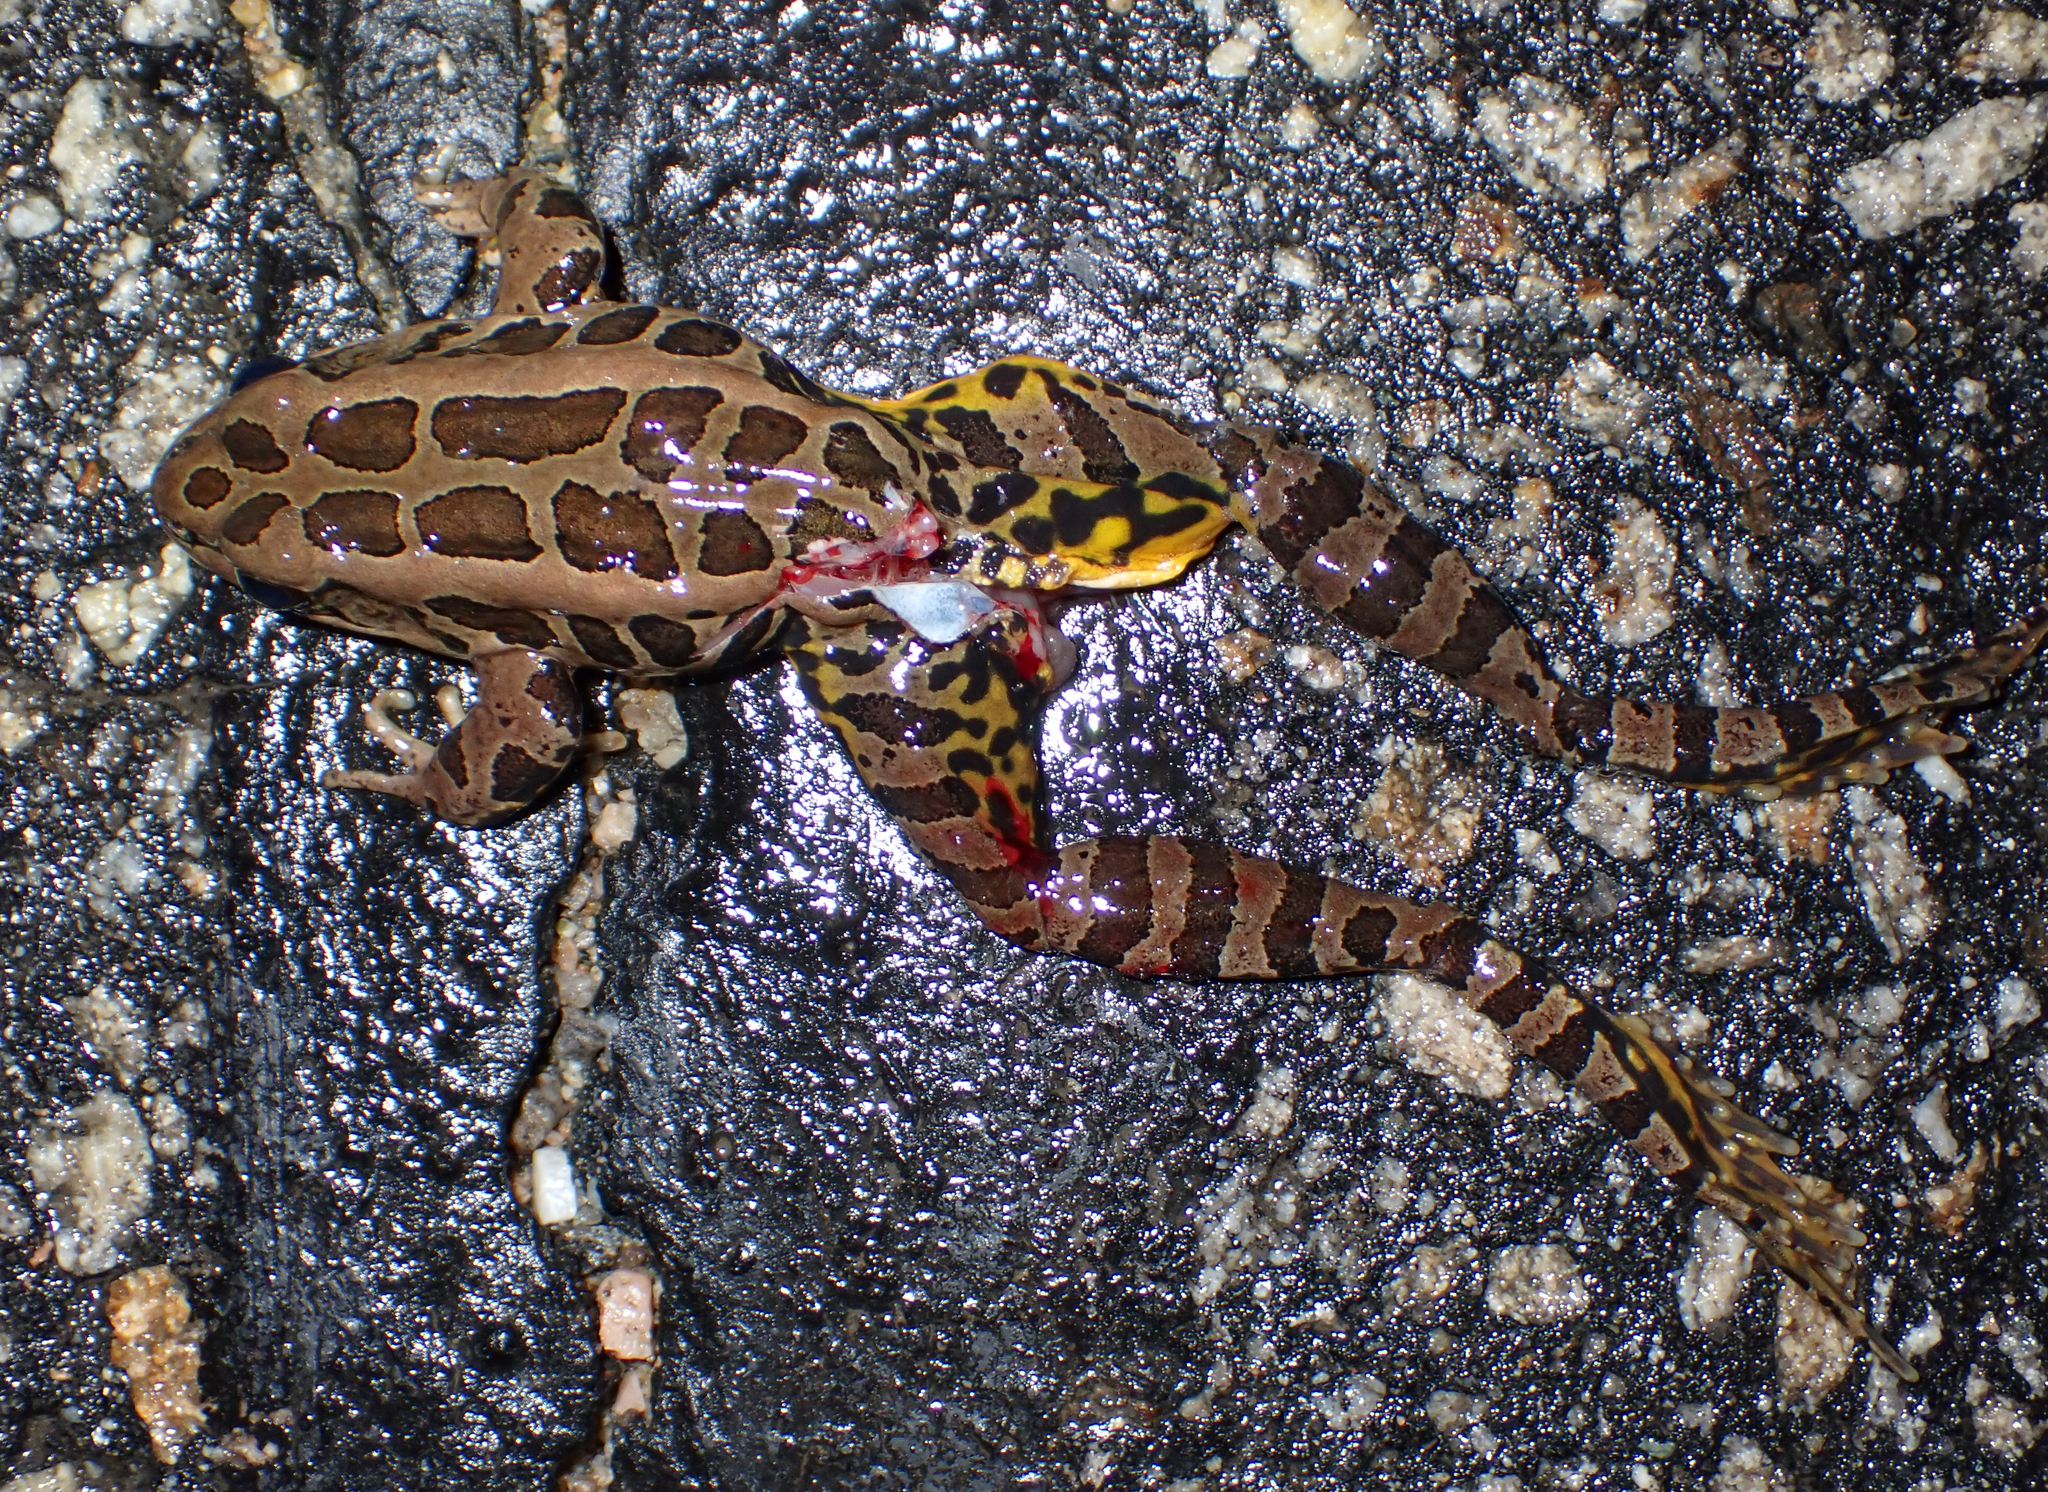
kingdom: Animalia
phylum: Chordata
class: Amphibia
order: Anura
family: Ranidae
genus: Lithobates
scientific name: Lithobates palustris
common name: Pickerel frog
